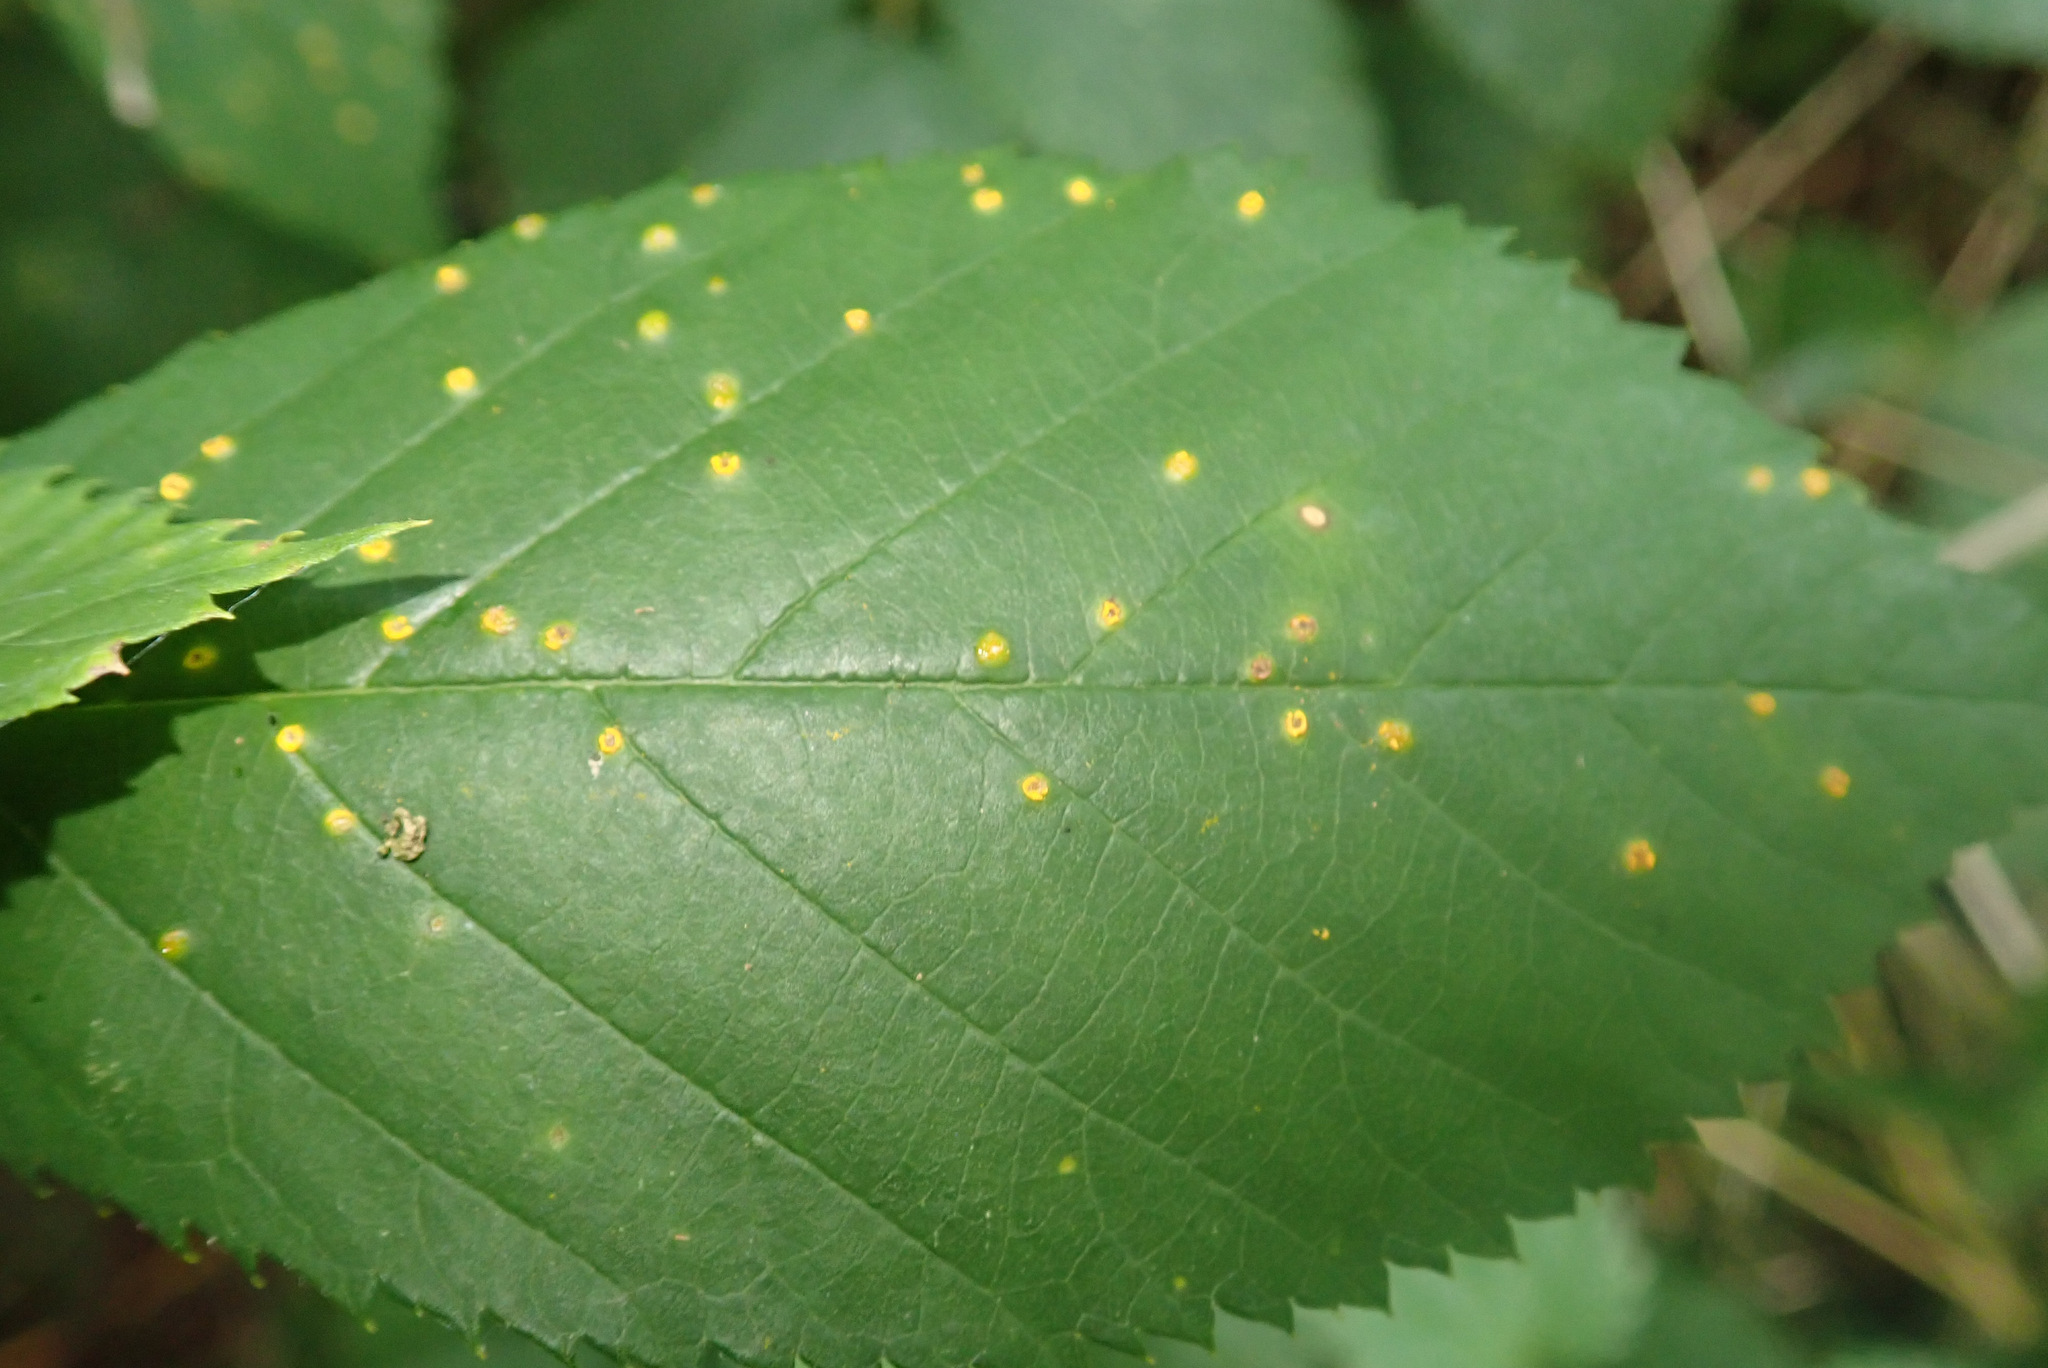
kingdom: Fungi
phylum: Basidiomycota
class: Pucciniomycetes
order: Pucciniales
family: Phragmidiaceae
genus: Kuehneola
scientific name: Kuehneola uredinis
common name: Bramble stem rust
